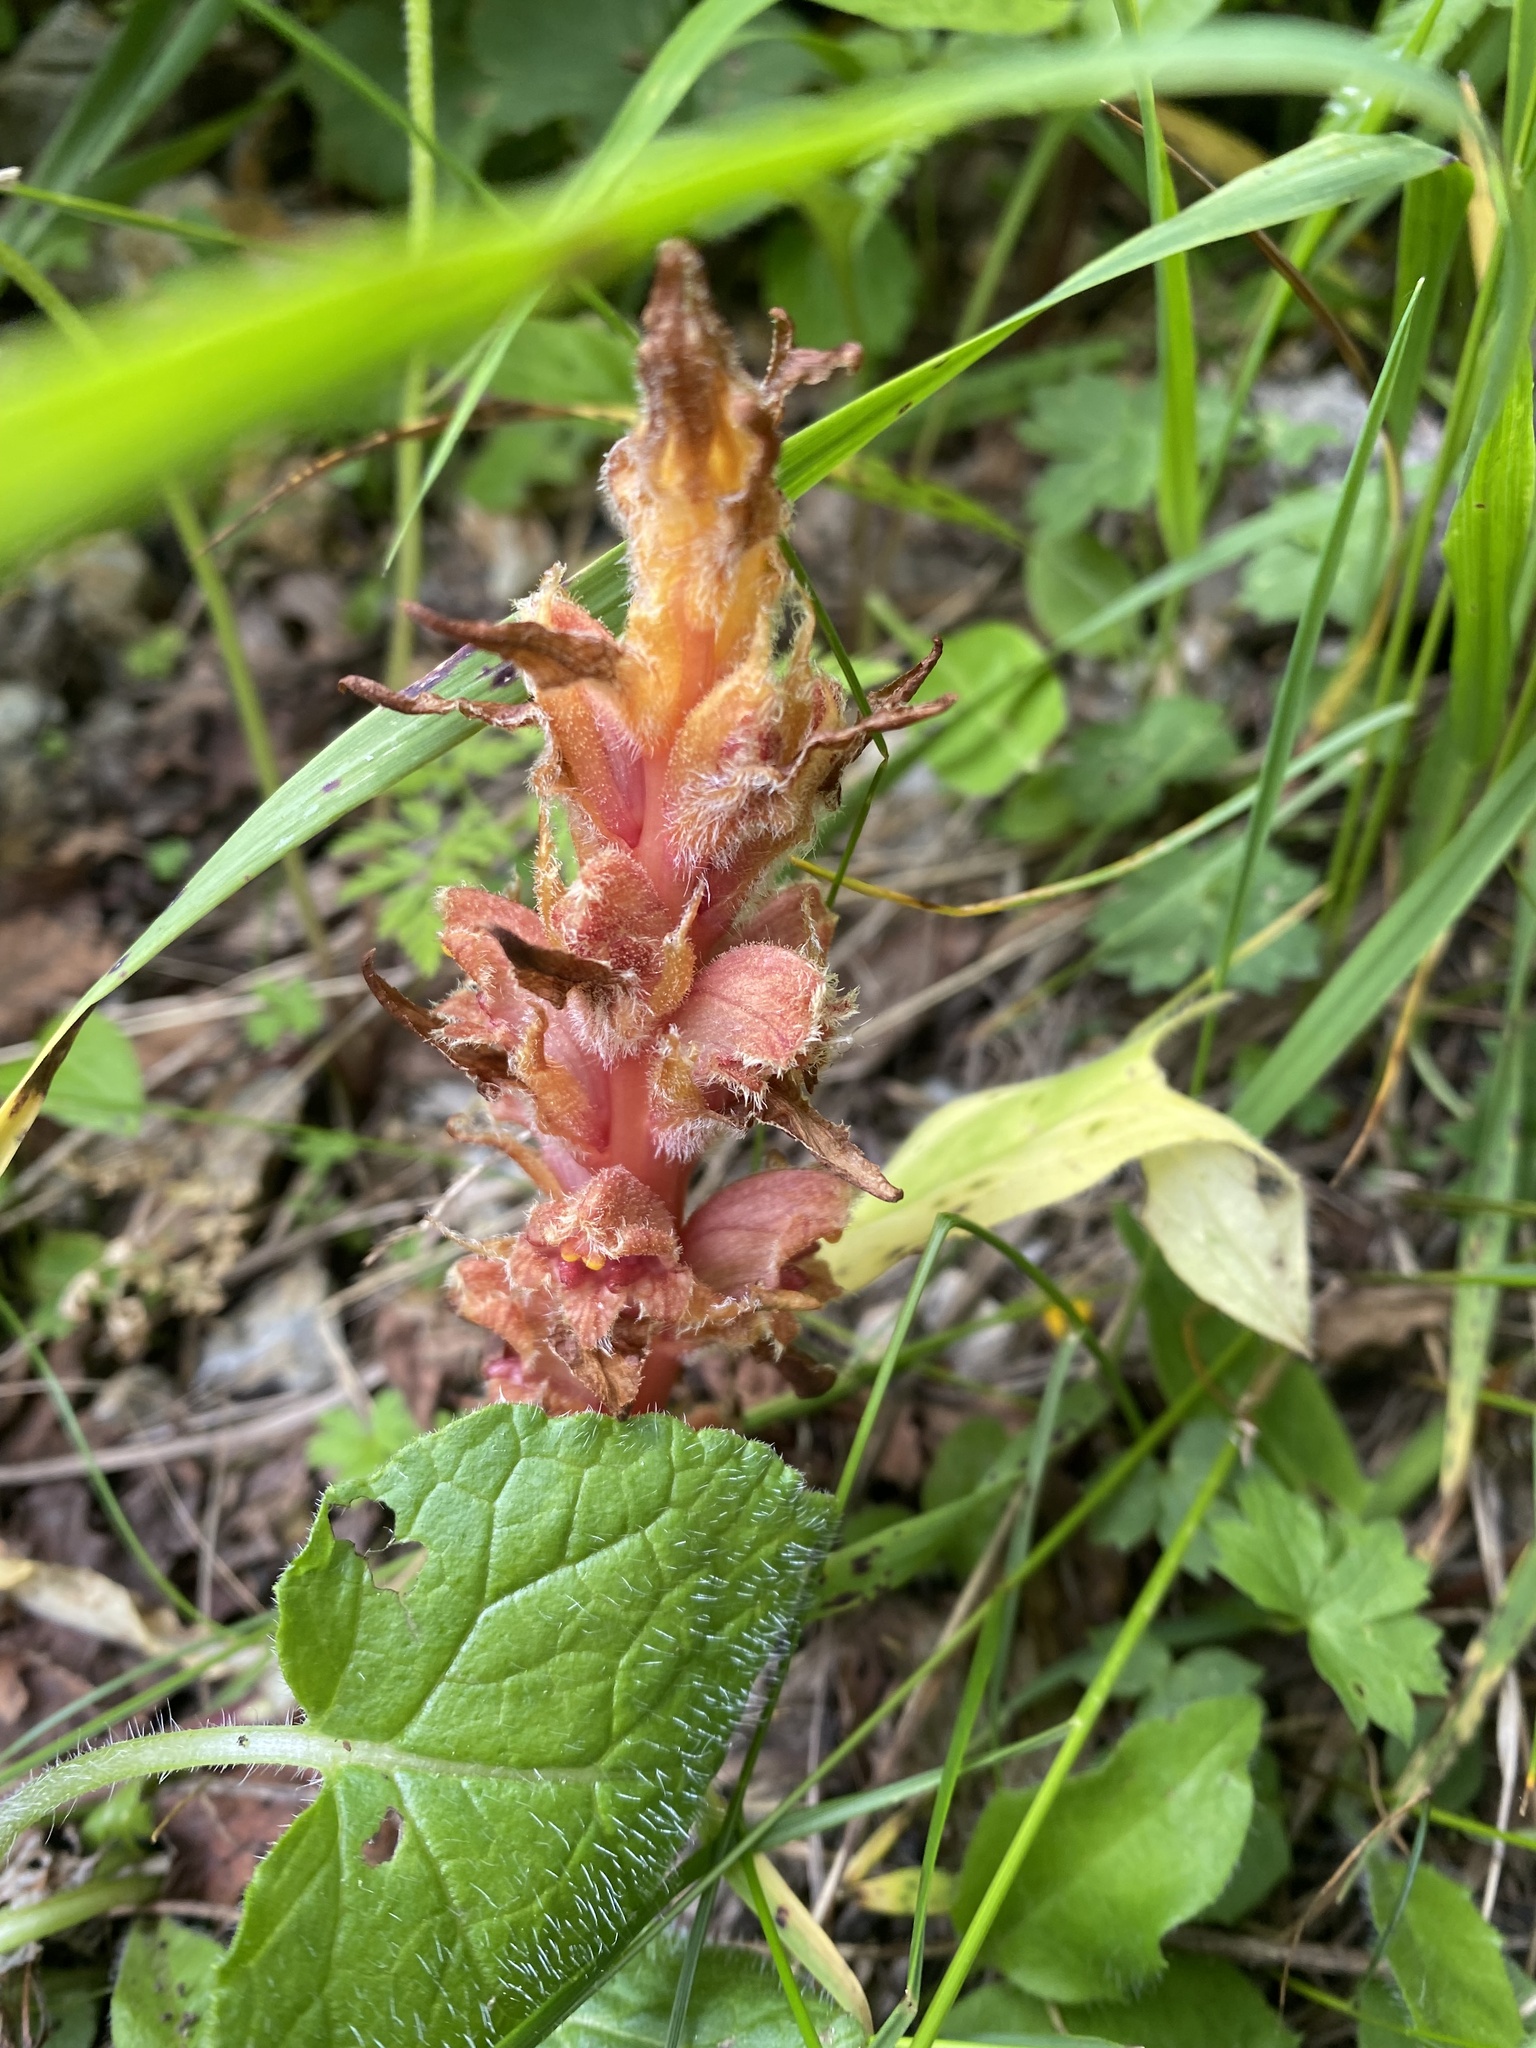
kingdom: Plantae
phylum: Tracheophyta
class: Magnoliopsida
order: Lamiales
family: Orobanchaceae
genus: Orobanche
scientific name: Orobanche colorata
